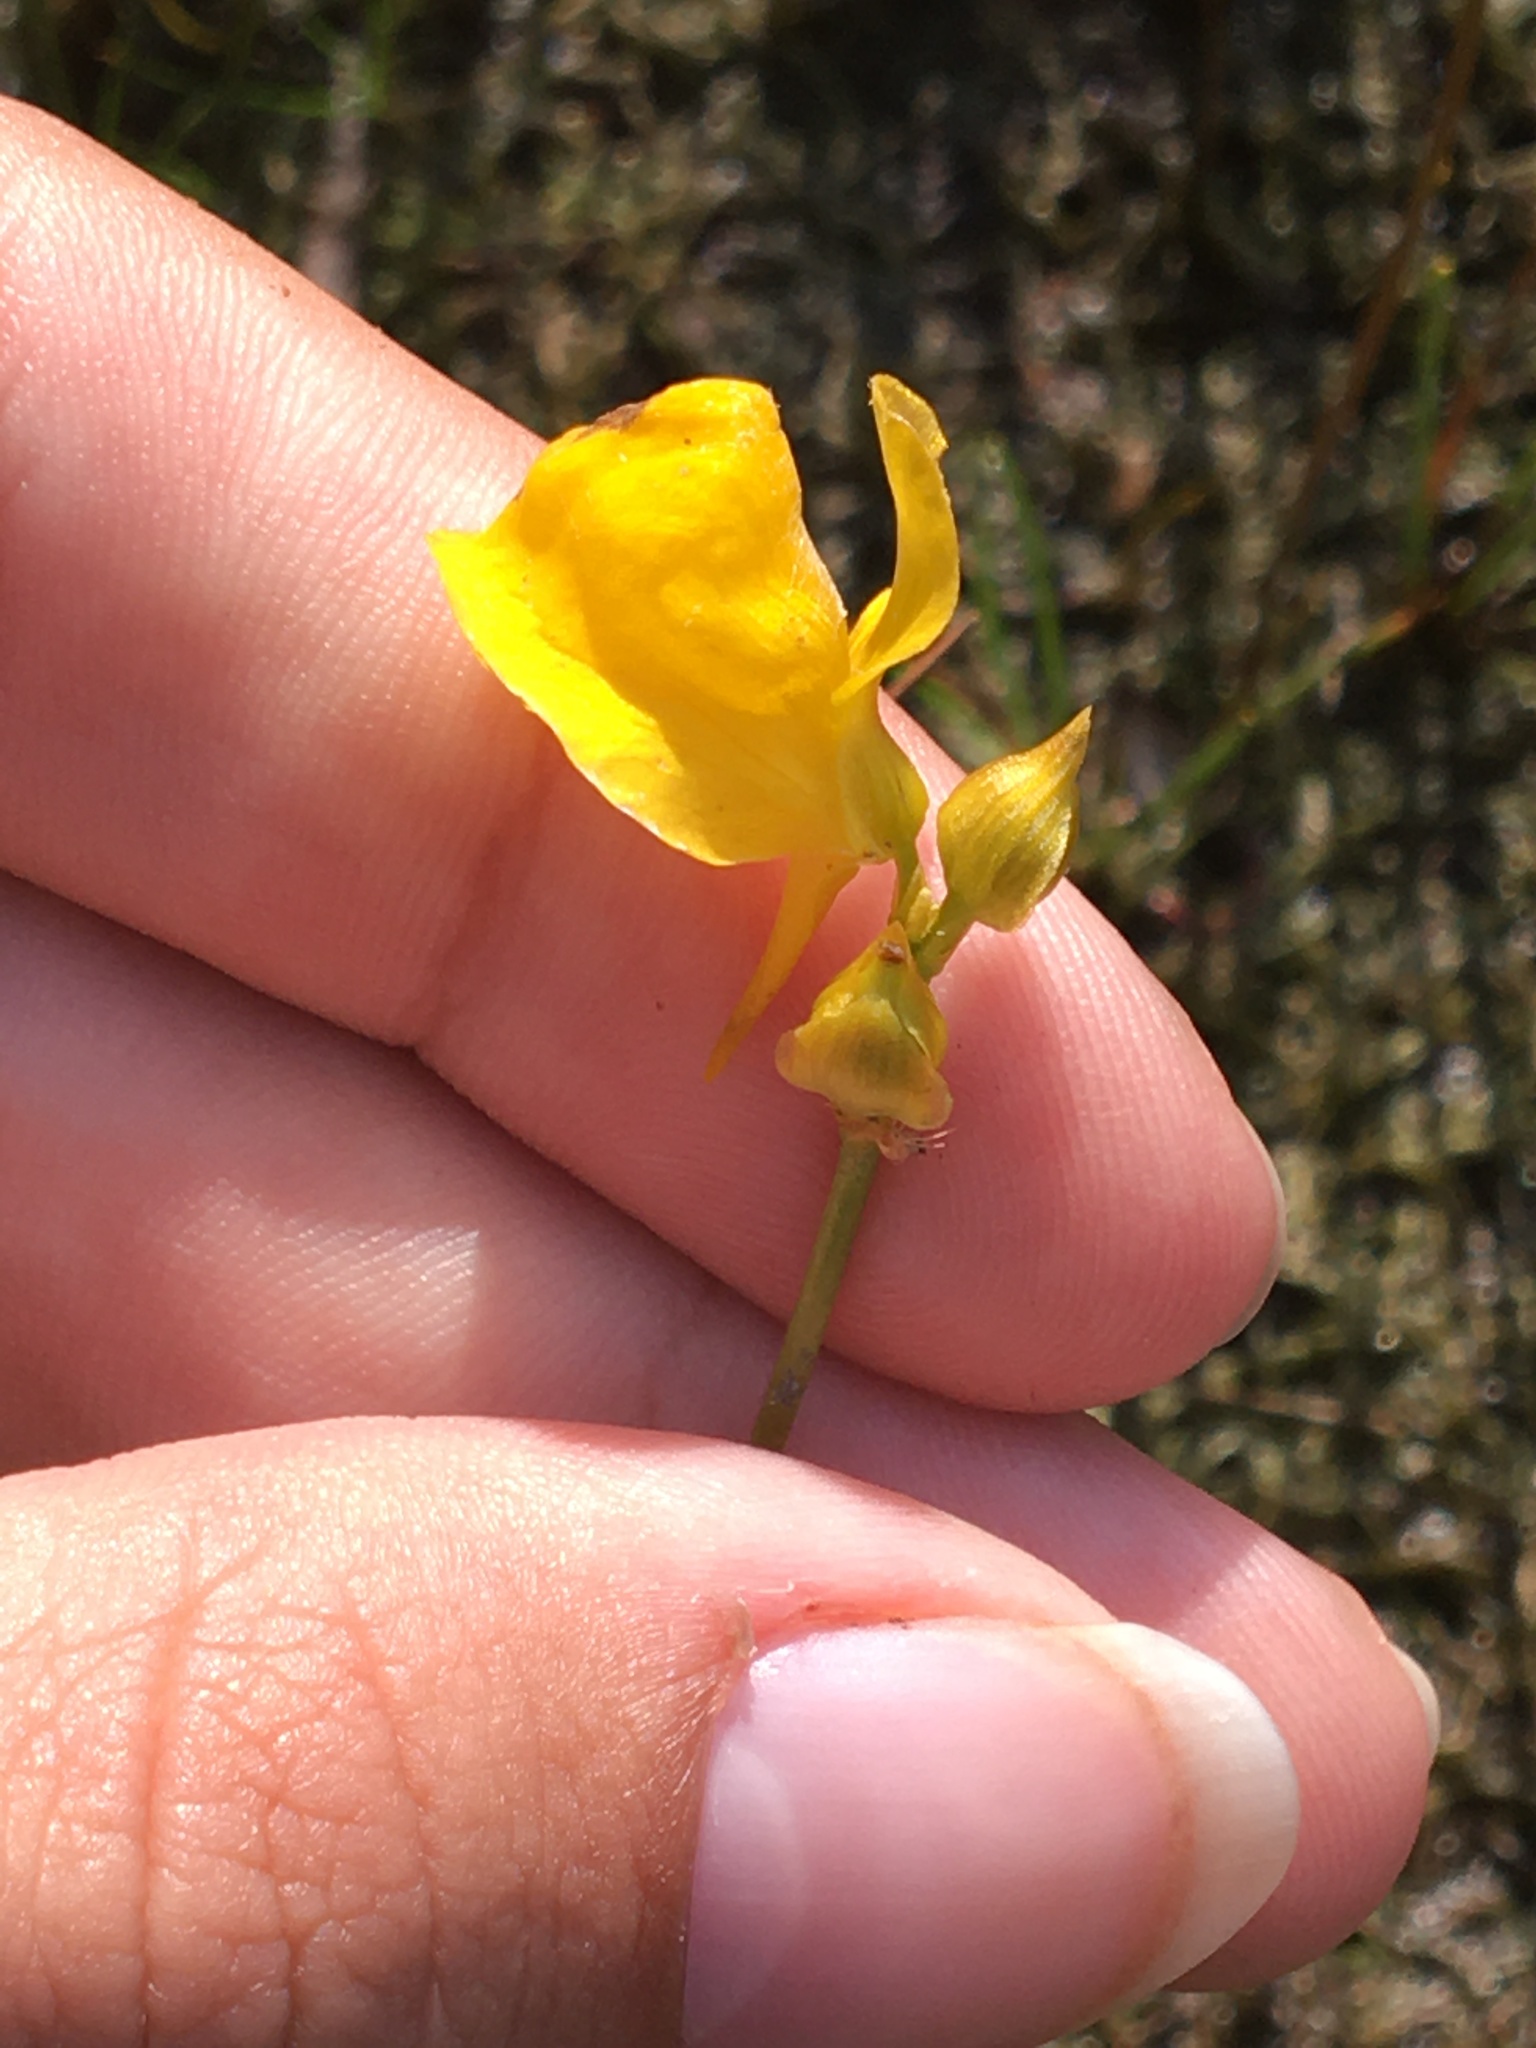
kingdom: Plantae
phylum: Tracheophyta
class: Magnoliopsida
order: Lamiales
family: Lentibulariaceae
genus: Utricularia
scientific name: Utricularia cornuta
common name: Horned bladderwort
